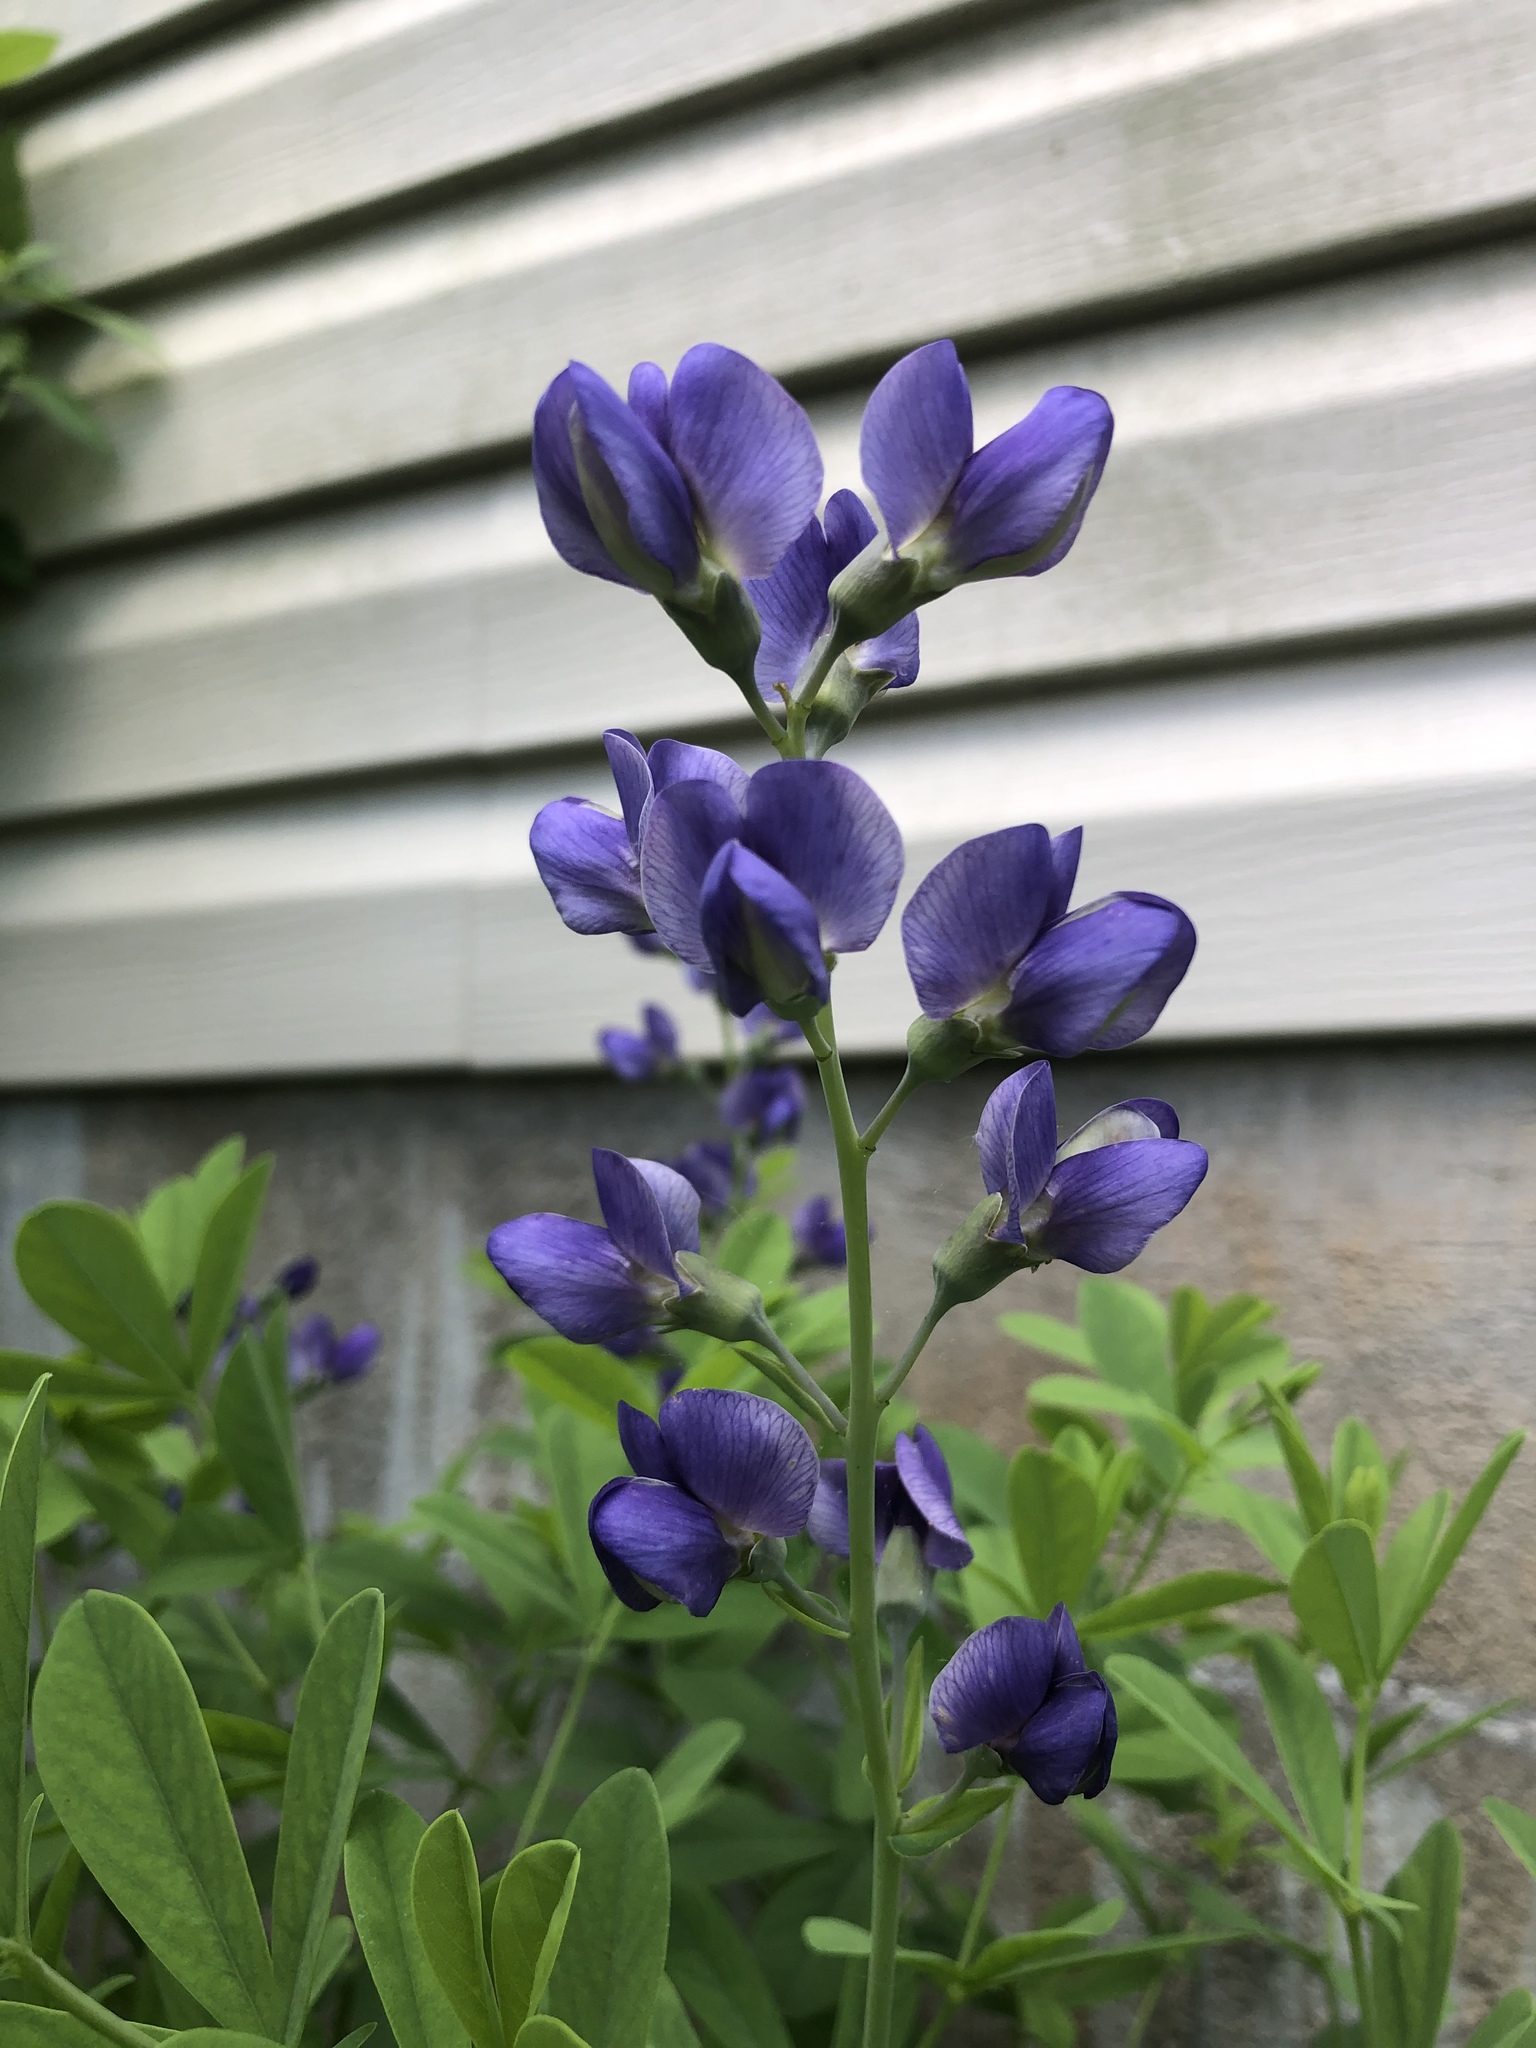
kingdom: Plantae
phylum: Tracheophyta
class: Magnoliopsida
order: Fabales
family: Fabaceae
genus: Baptisia
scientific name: Baptisia australis
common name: Blue false indigo
